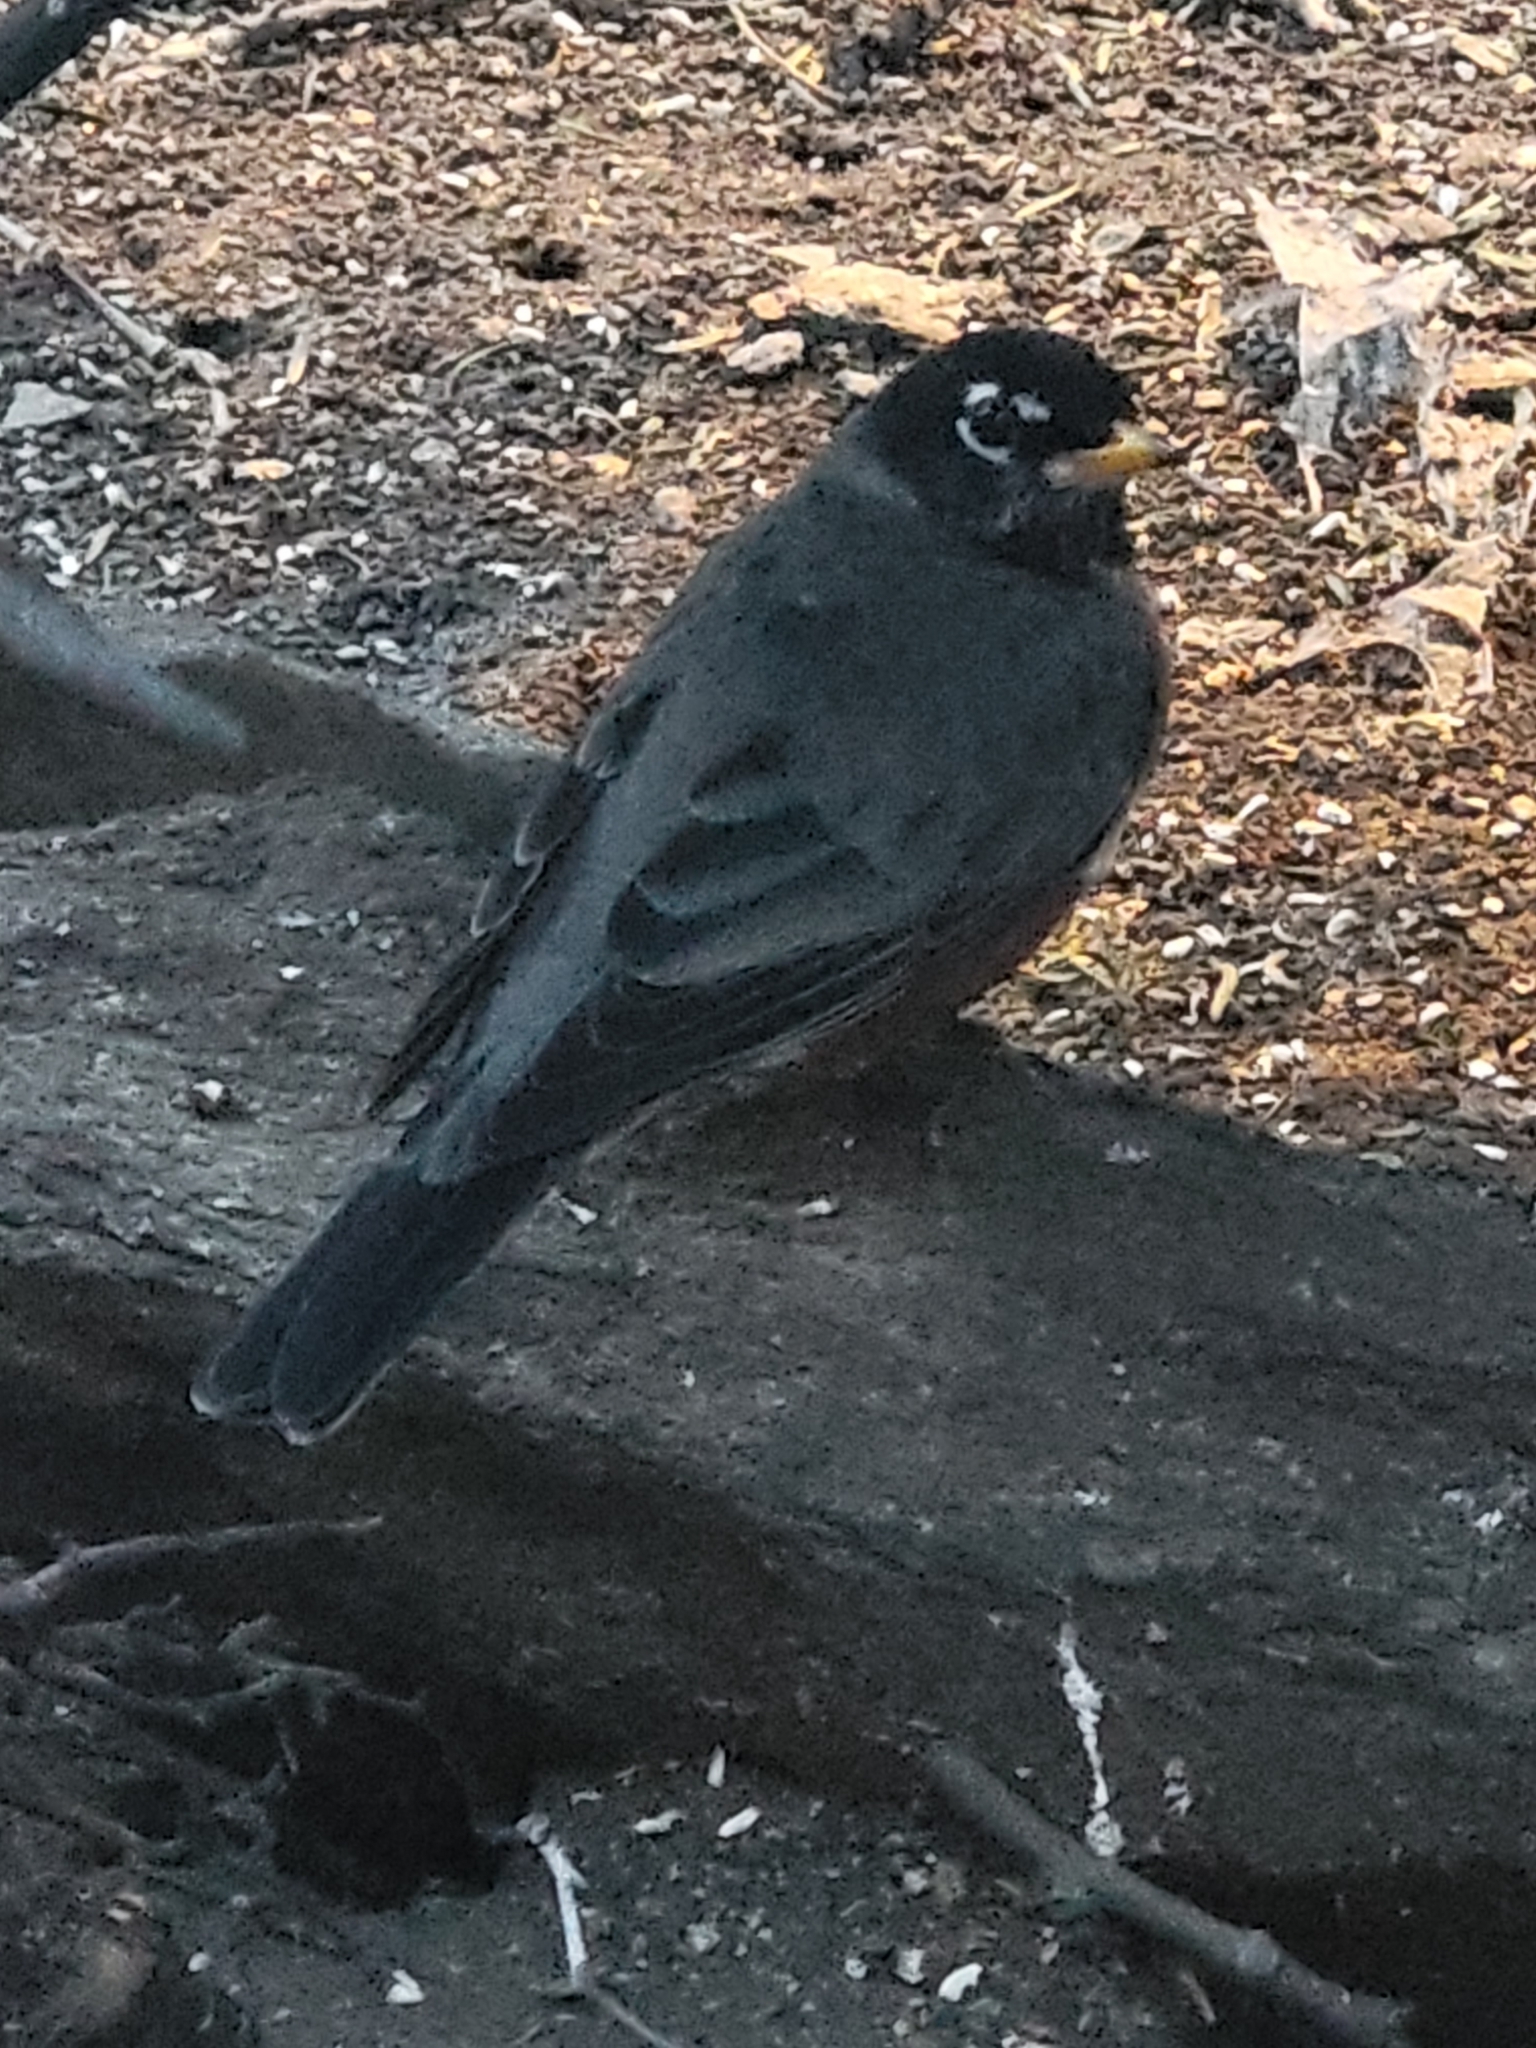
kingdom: Animalia
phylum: Chordata
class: Aves
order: Passeriformes
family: Turdidae
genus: Turdus
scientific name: Turdus migratorius
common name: American robin
